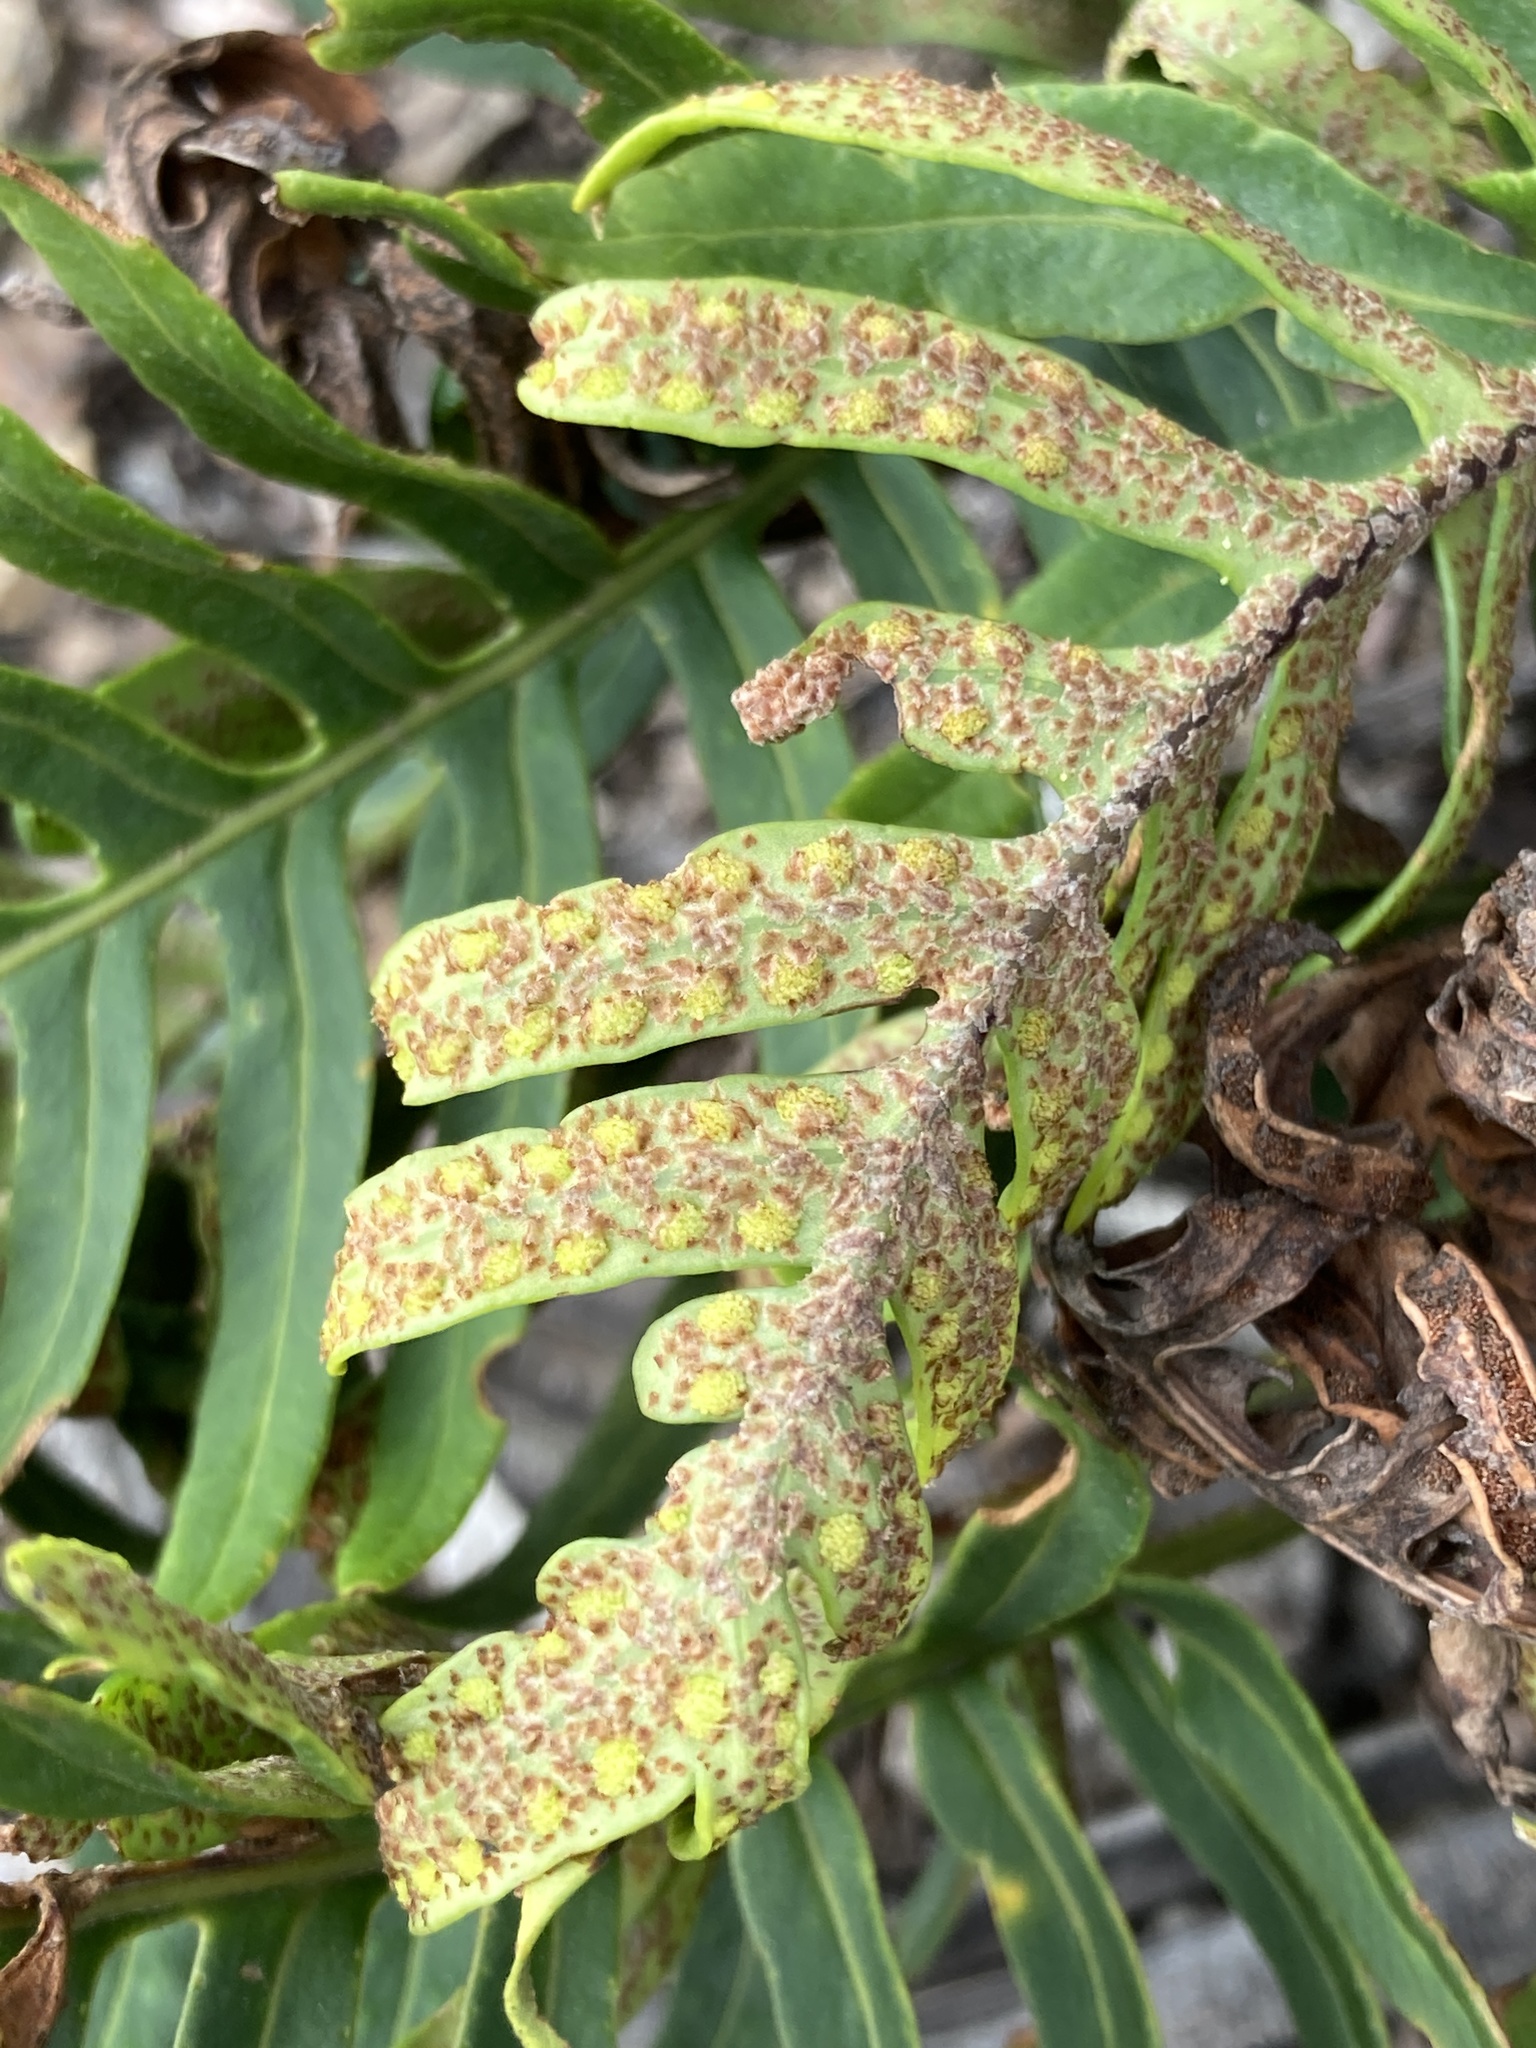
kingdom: Plantae
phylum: Tracheophyta
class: Polypodiopsida
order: Polypodiales
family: Polypodiaceae
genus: Pleopeltis
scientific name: Pleopeltis orientalis
